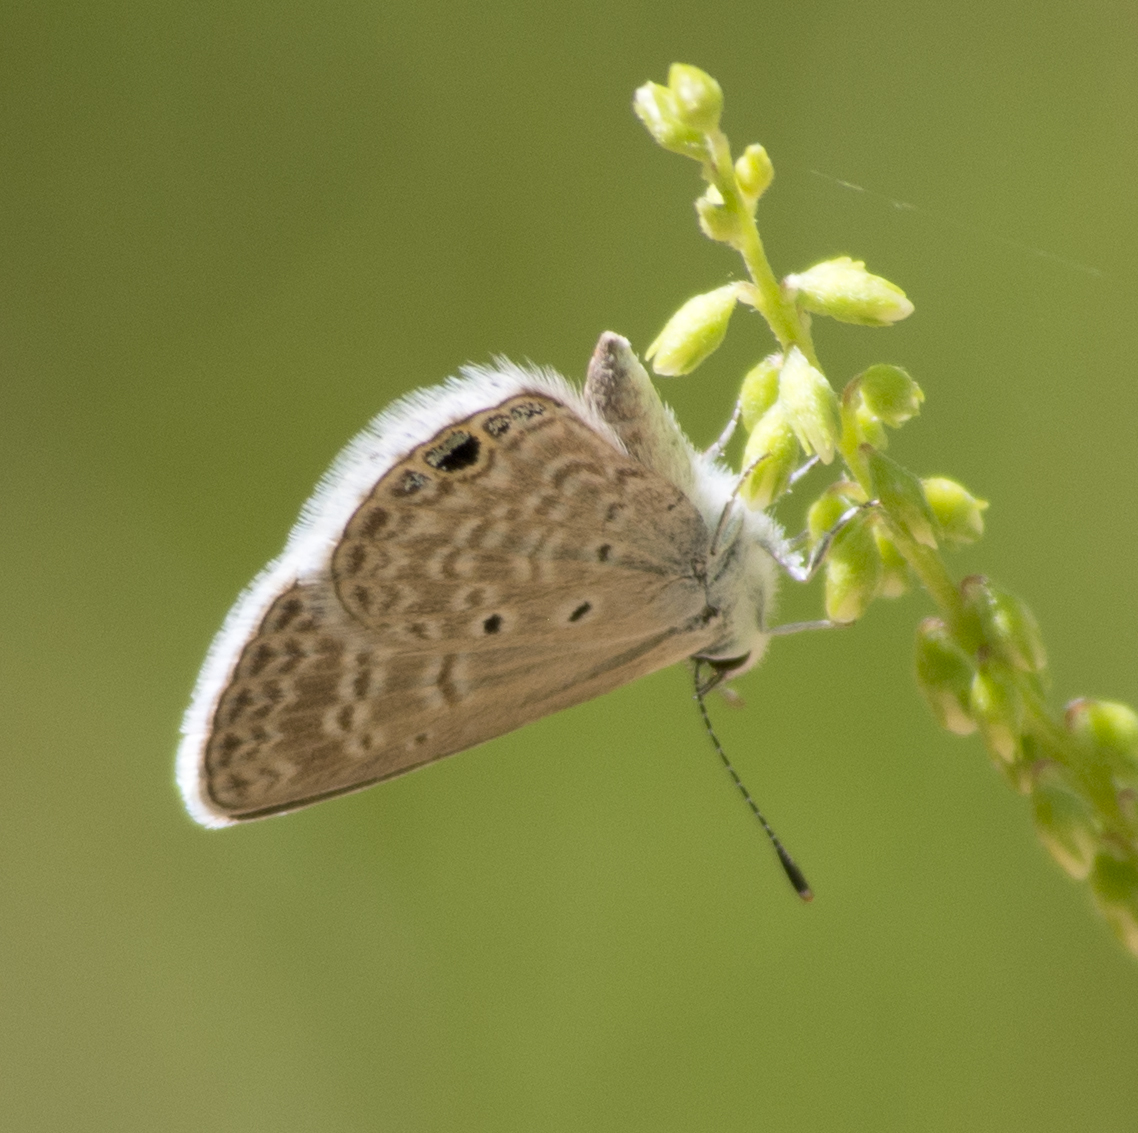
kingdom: Animalia
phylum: Arthropoda
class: Insecta
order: Lepidoptera
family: Lycaenidae
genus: Hemiargus
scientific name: Hemiargus ceraunus
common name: Ceraunus blue
